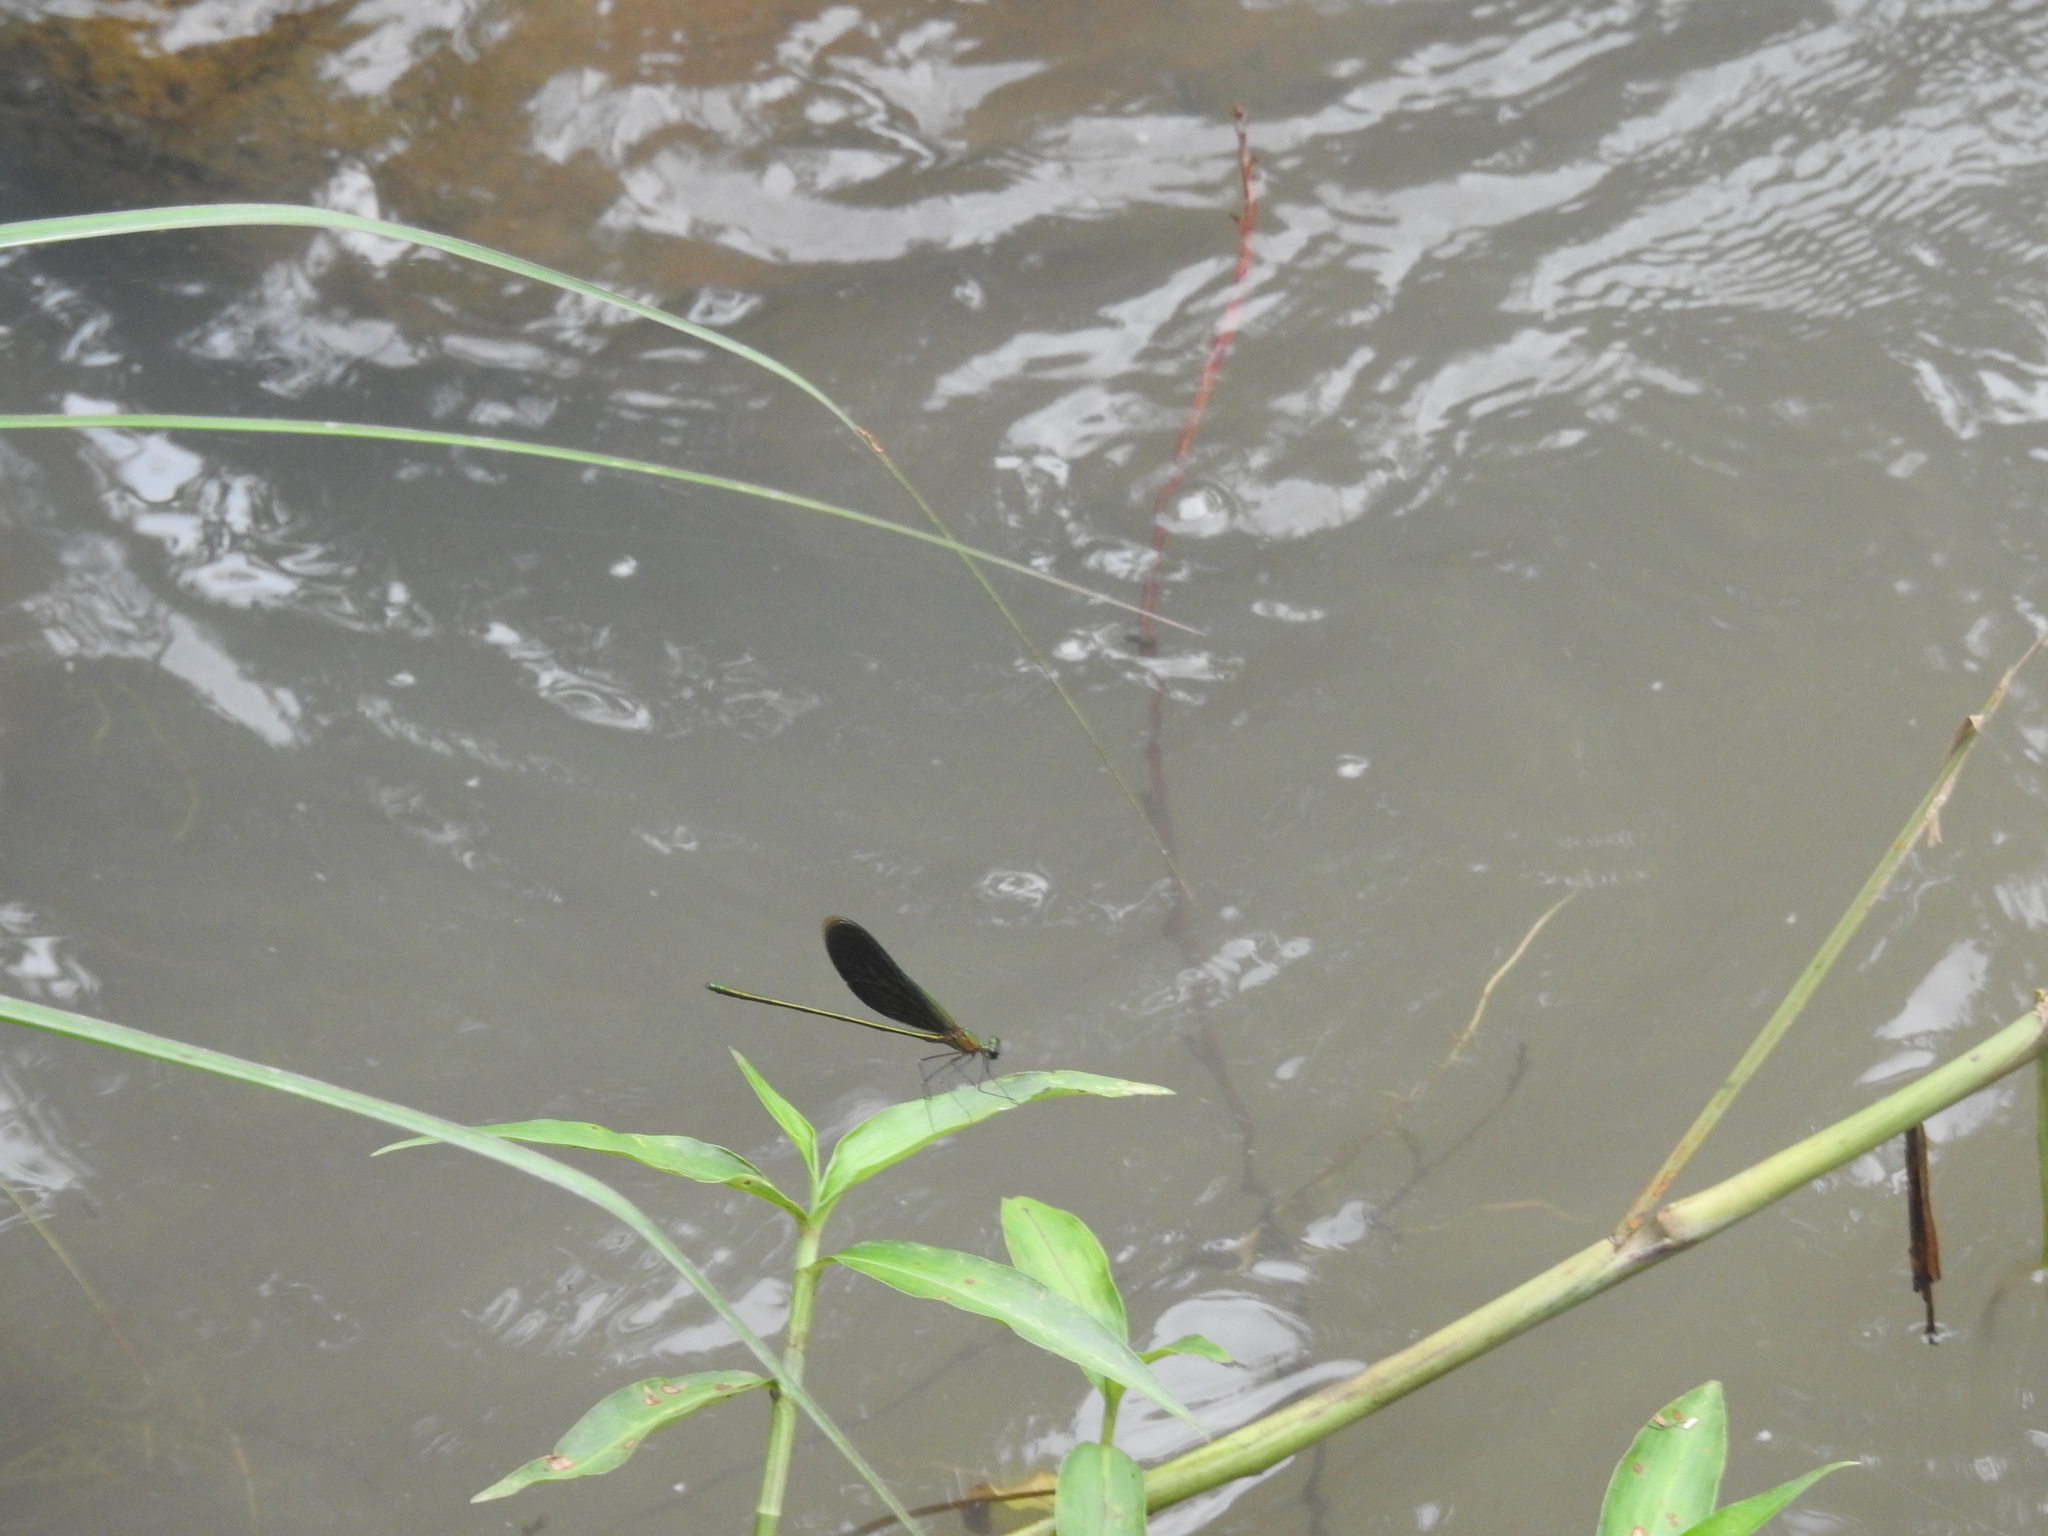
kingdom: Animalia
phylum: Arthropoda
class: Insecta
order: Odonata
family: Calopterygidae
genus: Neurobasis
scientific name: Neurobasis chinensis
